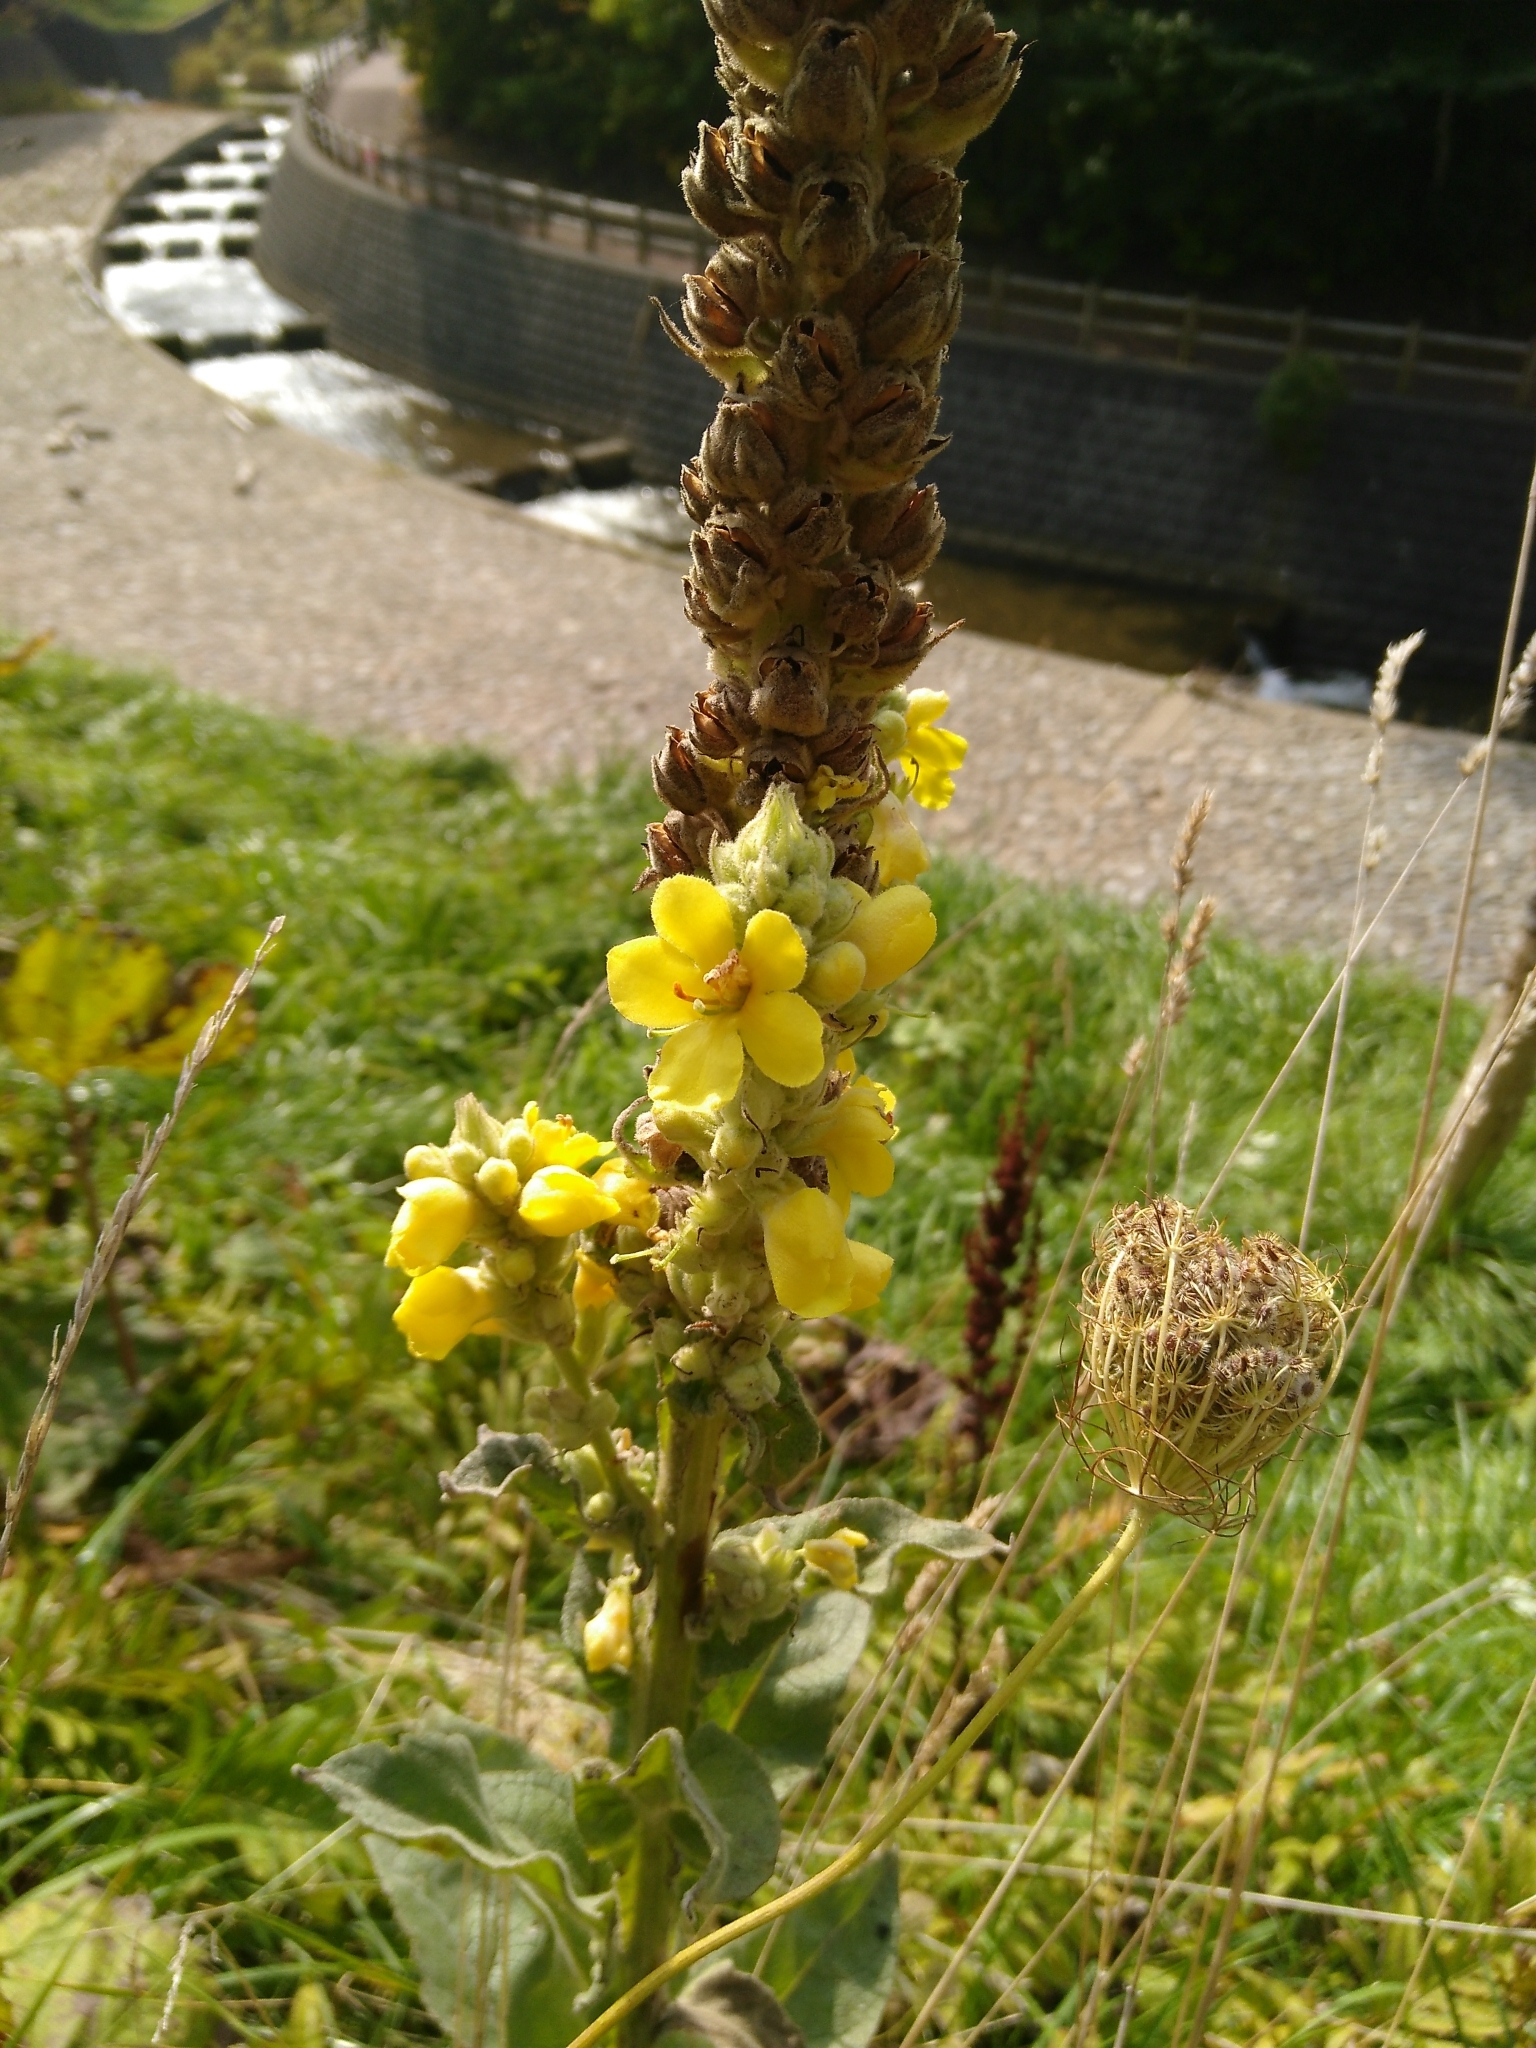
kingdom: Plantae
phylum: Tracheophyta
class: Magnoliopsida
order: Lamiales
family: Scrophulariaceae
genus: Verbascum
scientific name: Verbascum thapsus
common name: Common mullein
